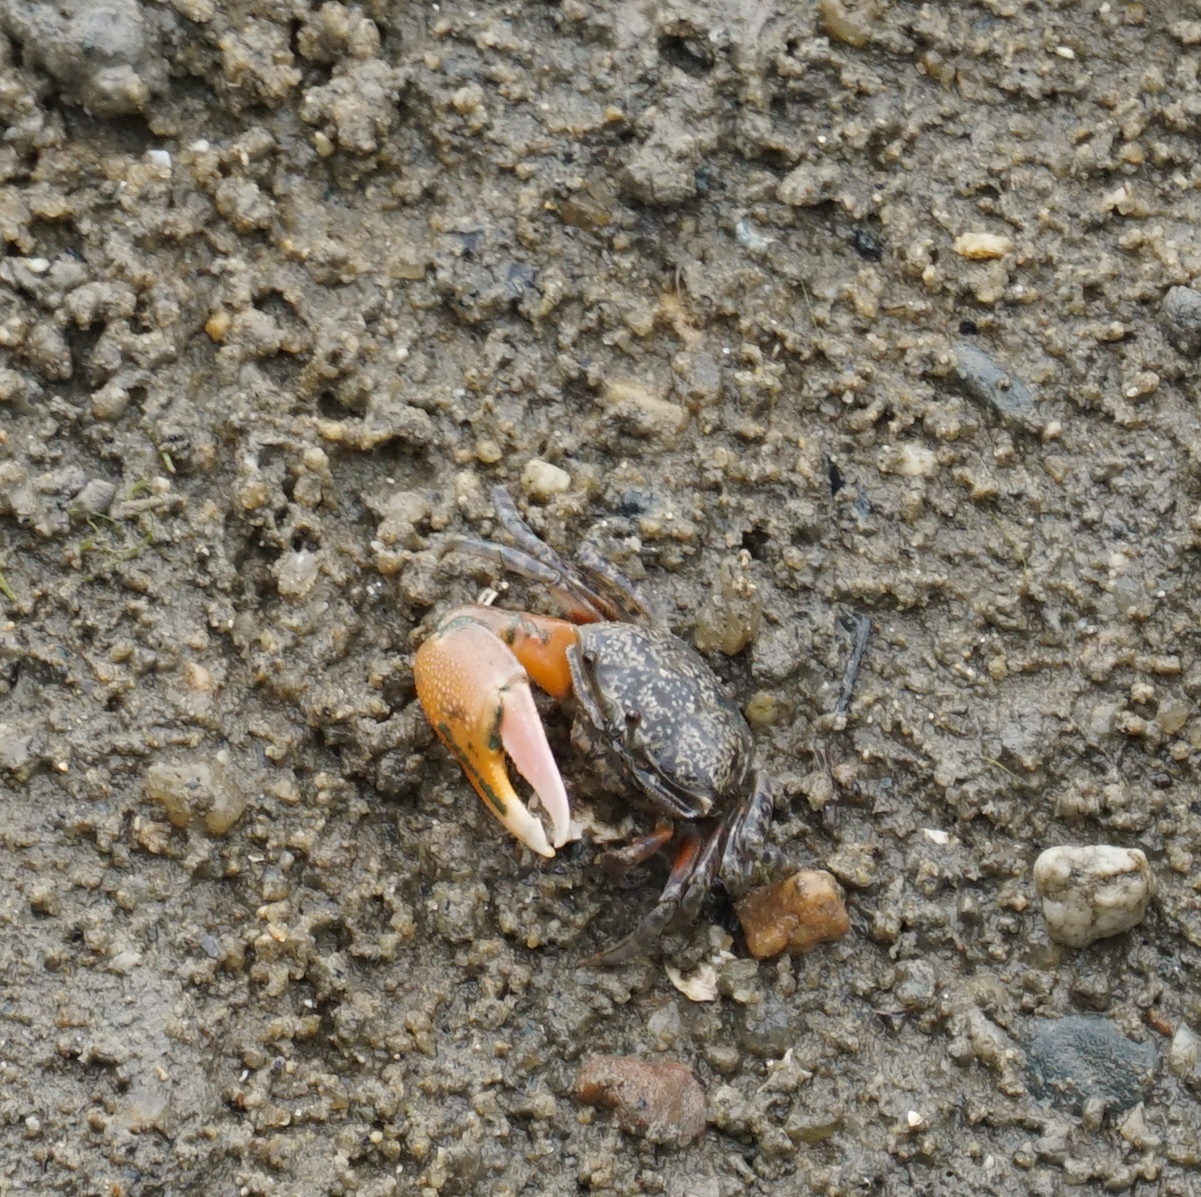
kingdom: Animalia
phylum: Arthropoda
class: Malacostraca
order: Decapoda
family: Ocypodidae
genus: Gelasimus
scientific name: Gelasimus vomeris
